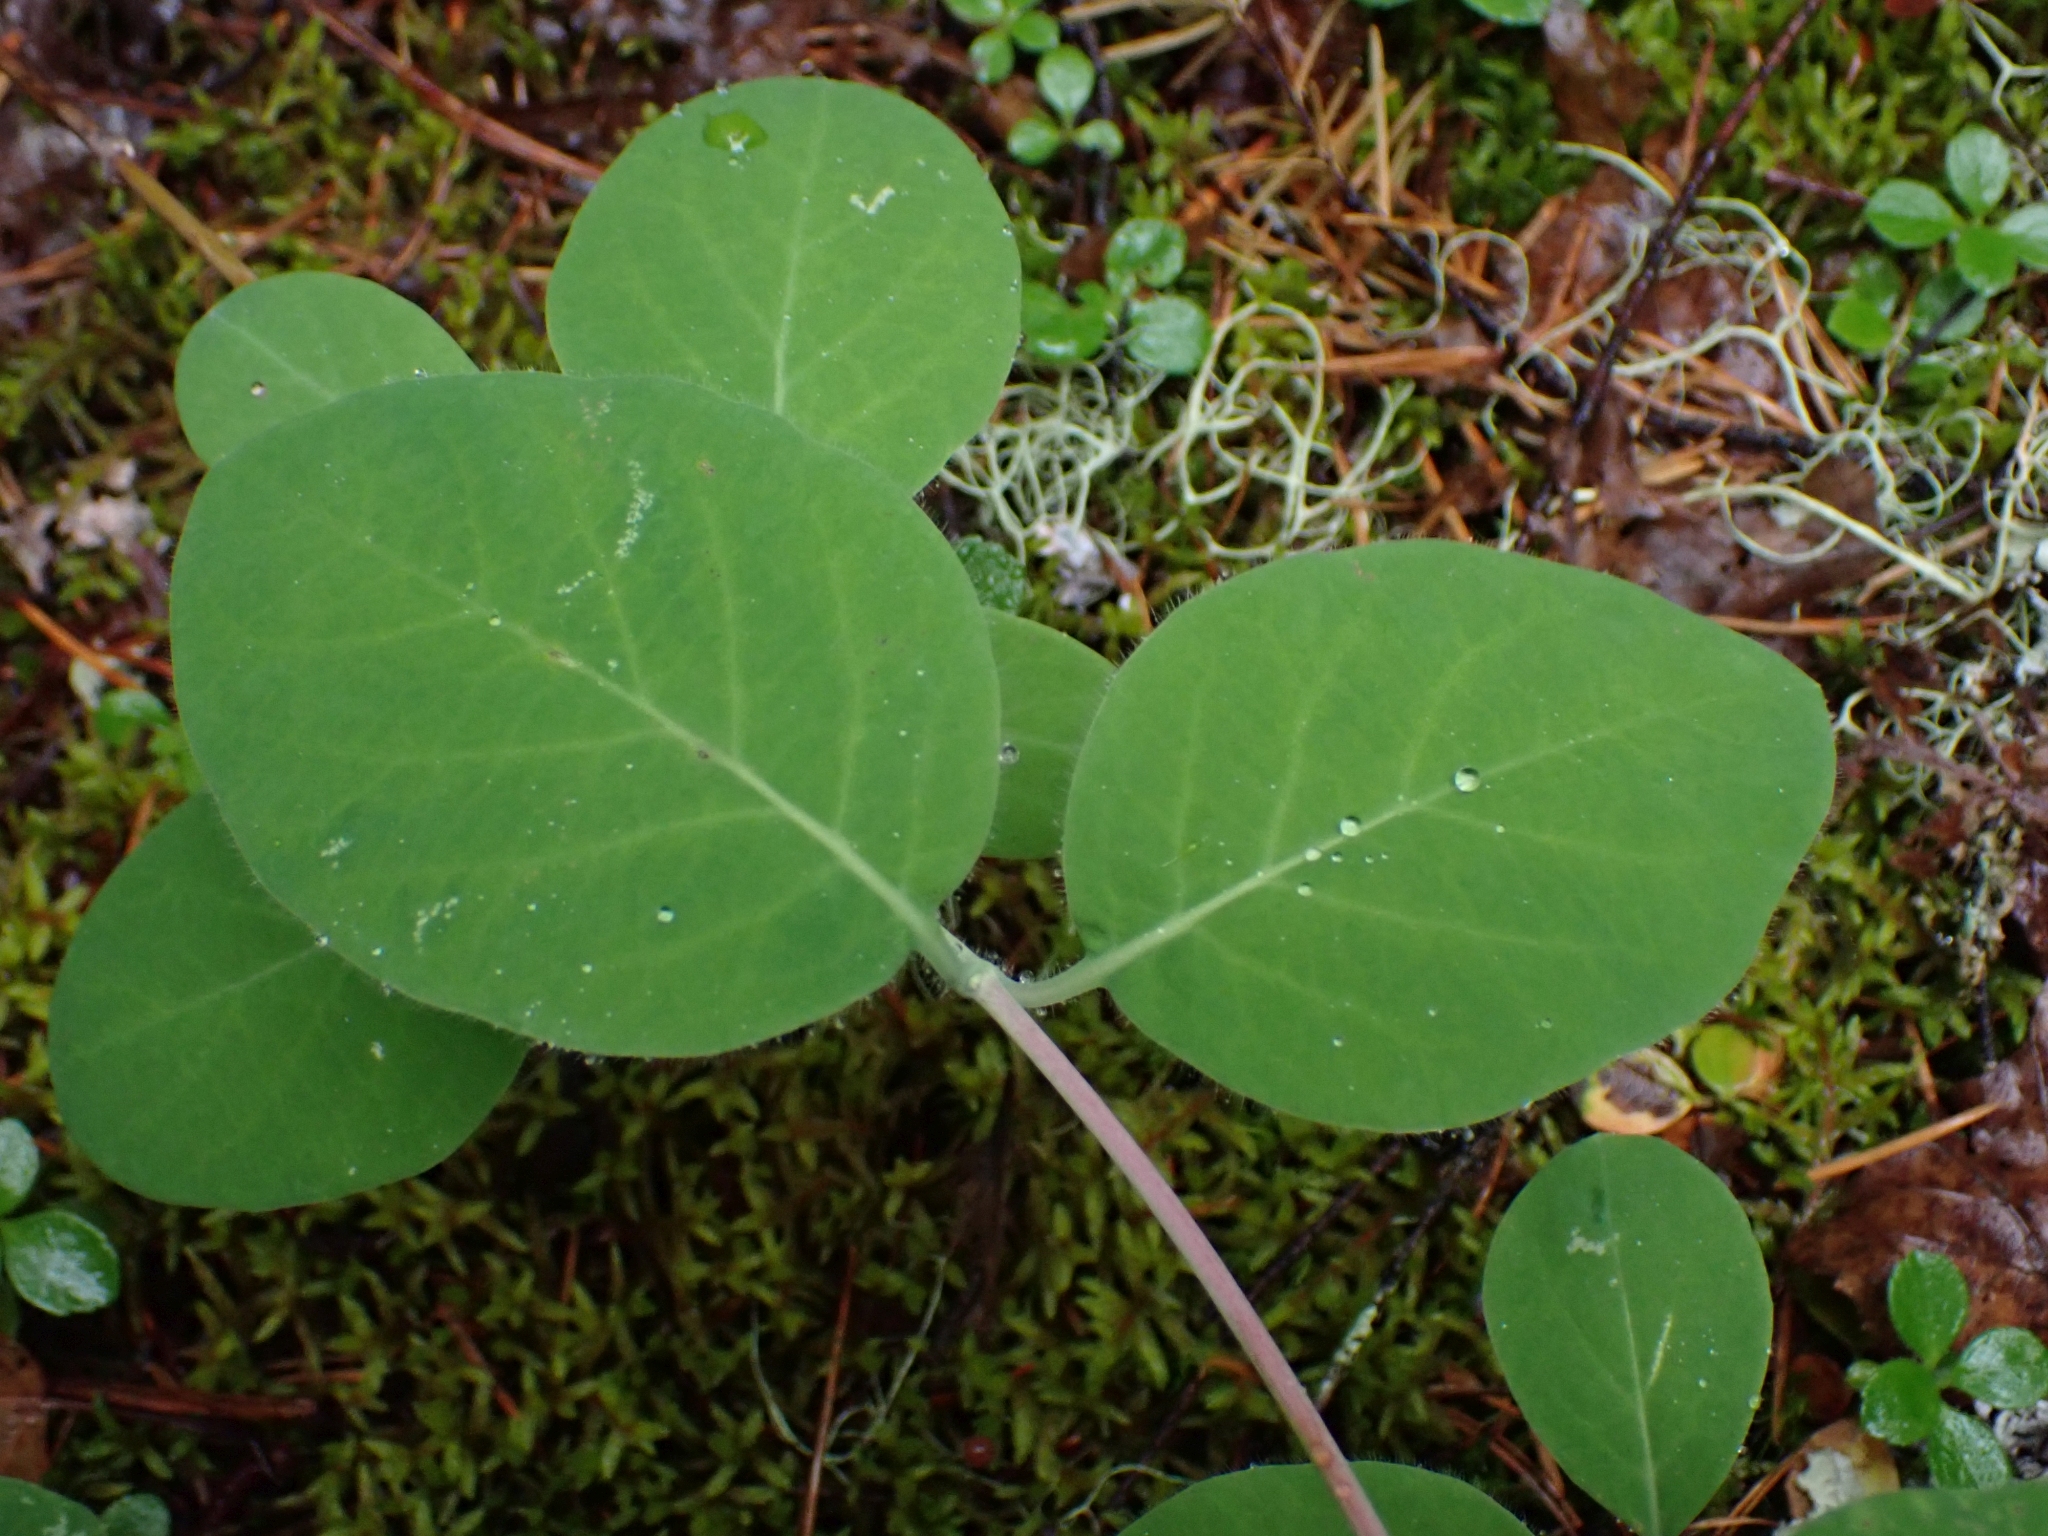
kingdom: Plantae
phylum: Tracheophyta
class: Magnoliopsida
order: Dipsacales
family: Caprifoliaceae
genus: Lonicera
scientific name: Lonicera ciliosa
